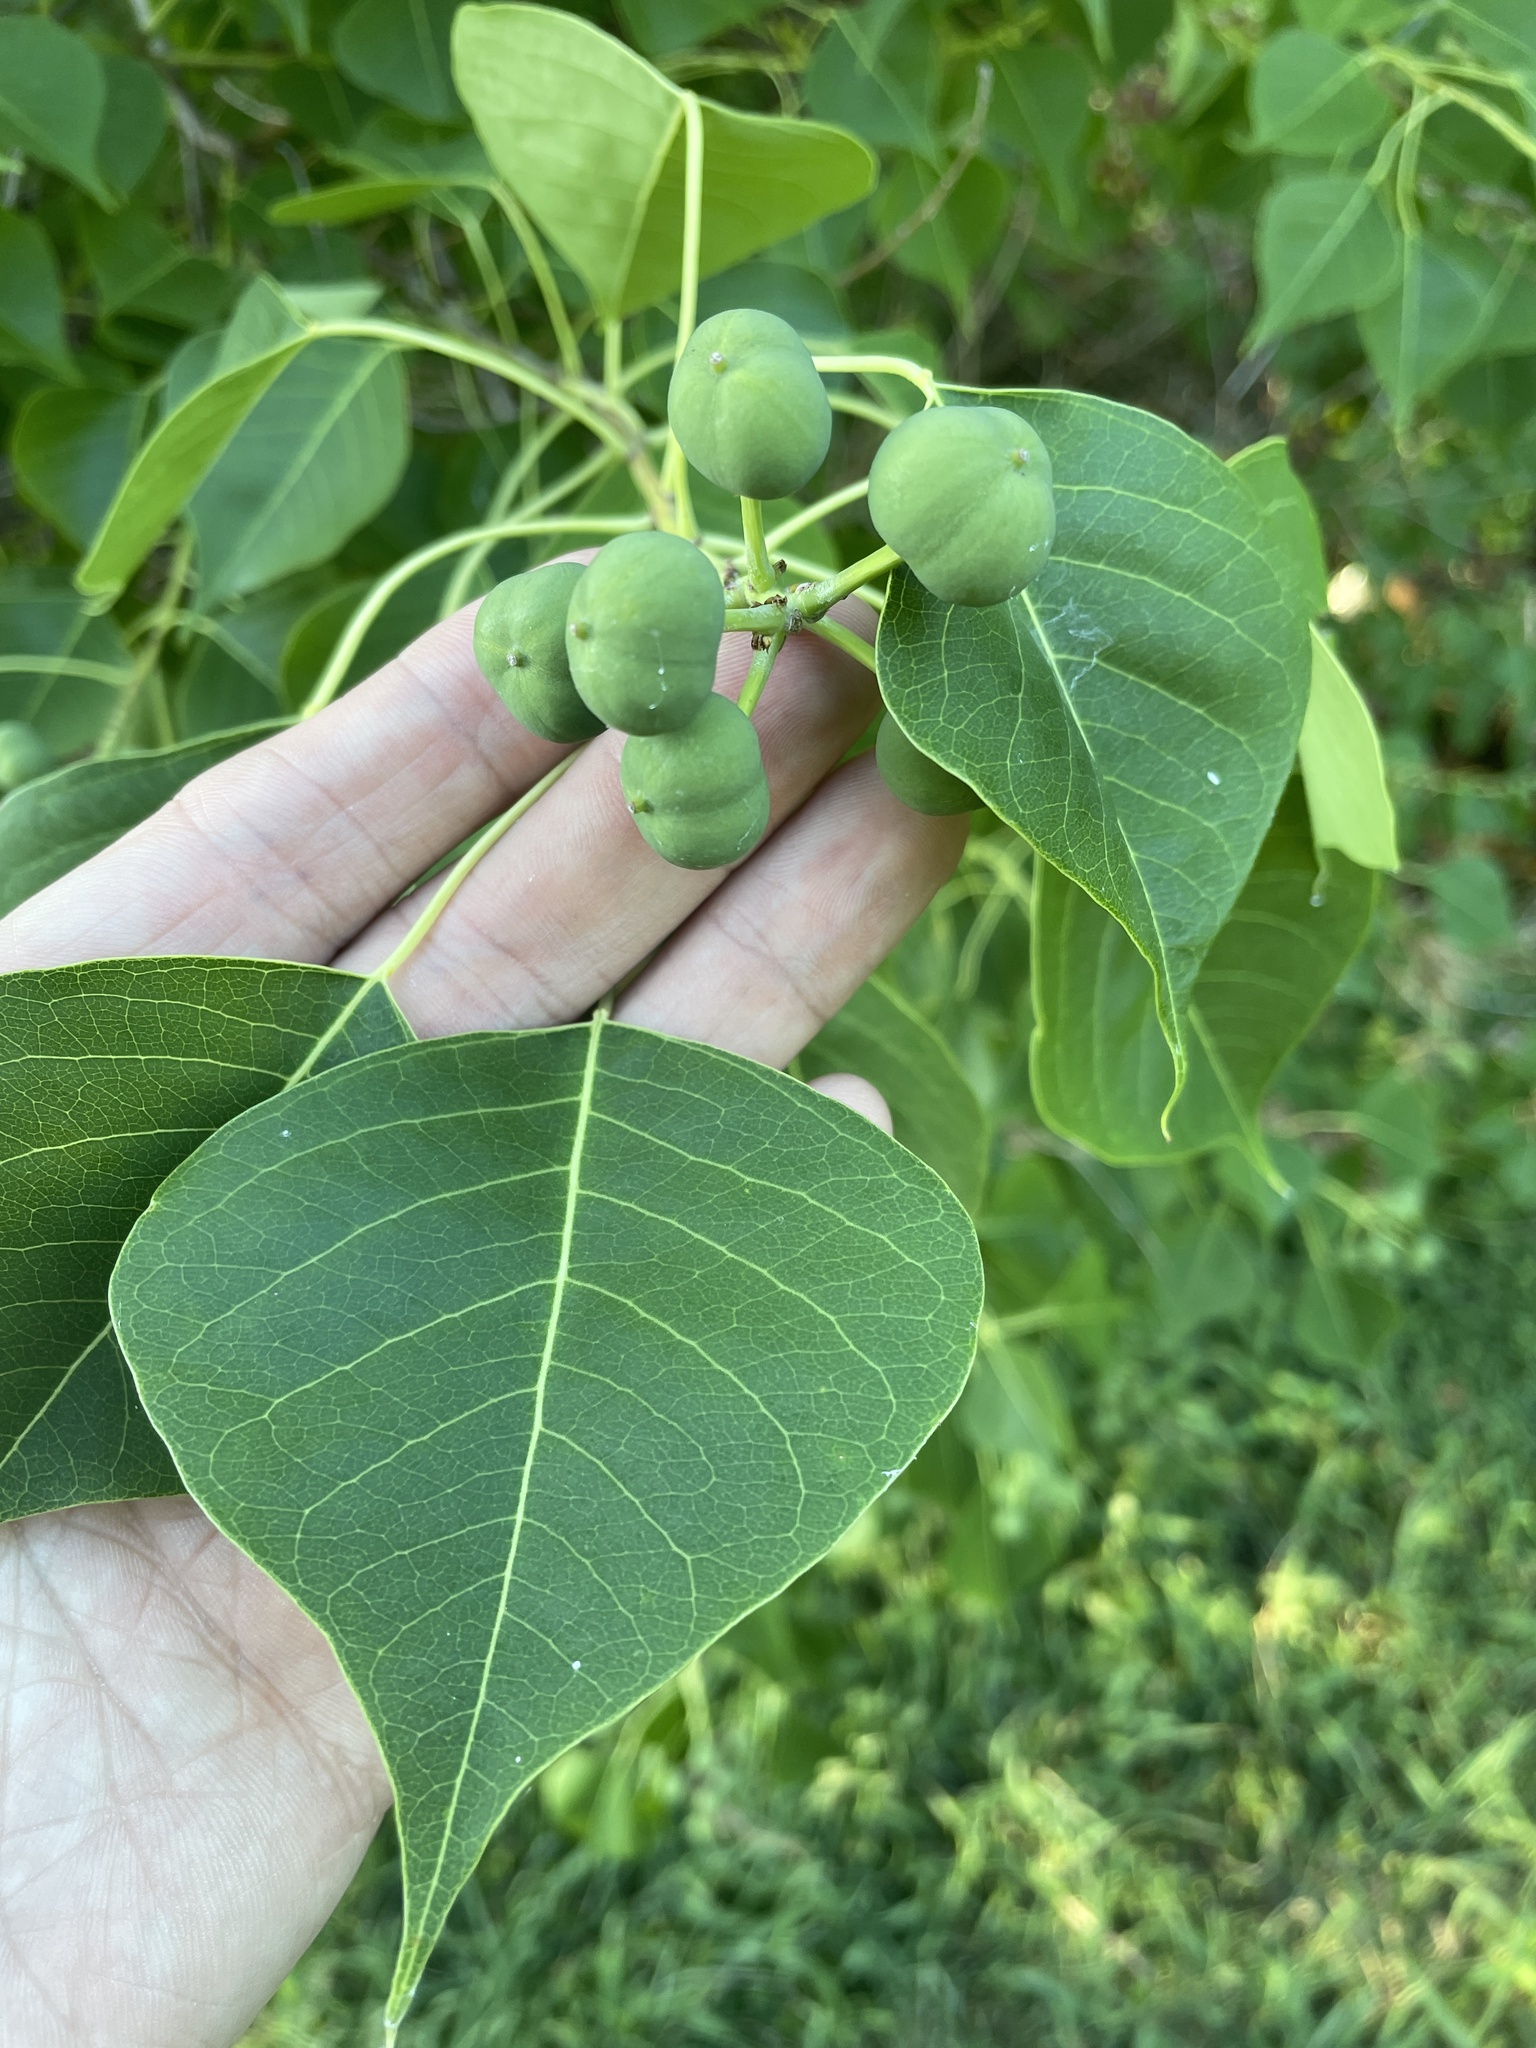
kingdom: Plantae
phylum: Tracheophyta
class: Magnoliopsida
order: Malpighiales
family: Euphorbiaceae
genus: Triadica
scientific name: Triadica sebifera
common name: Chinese tallow
